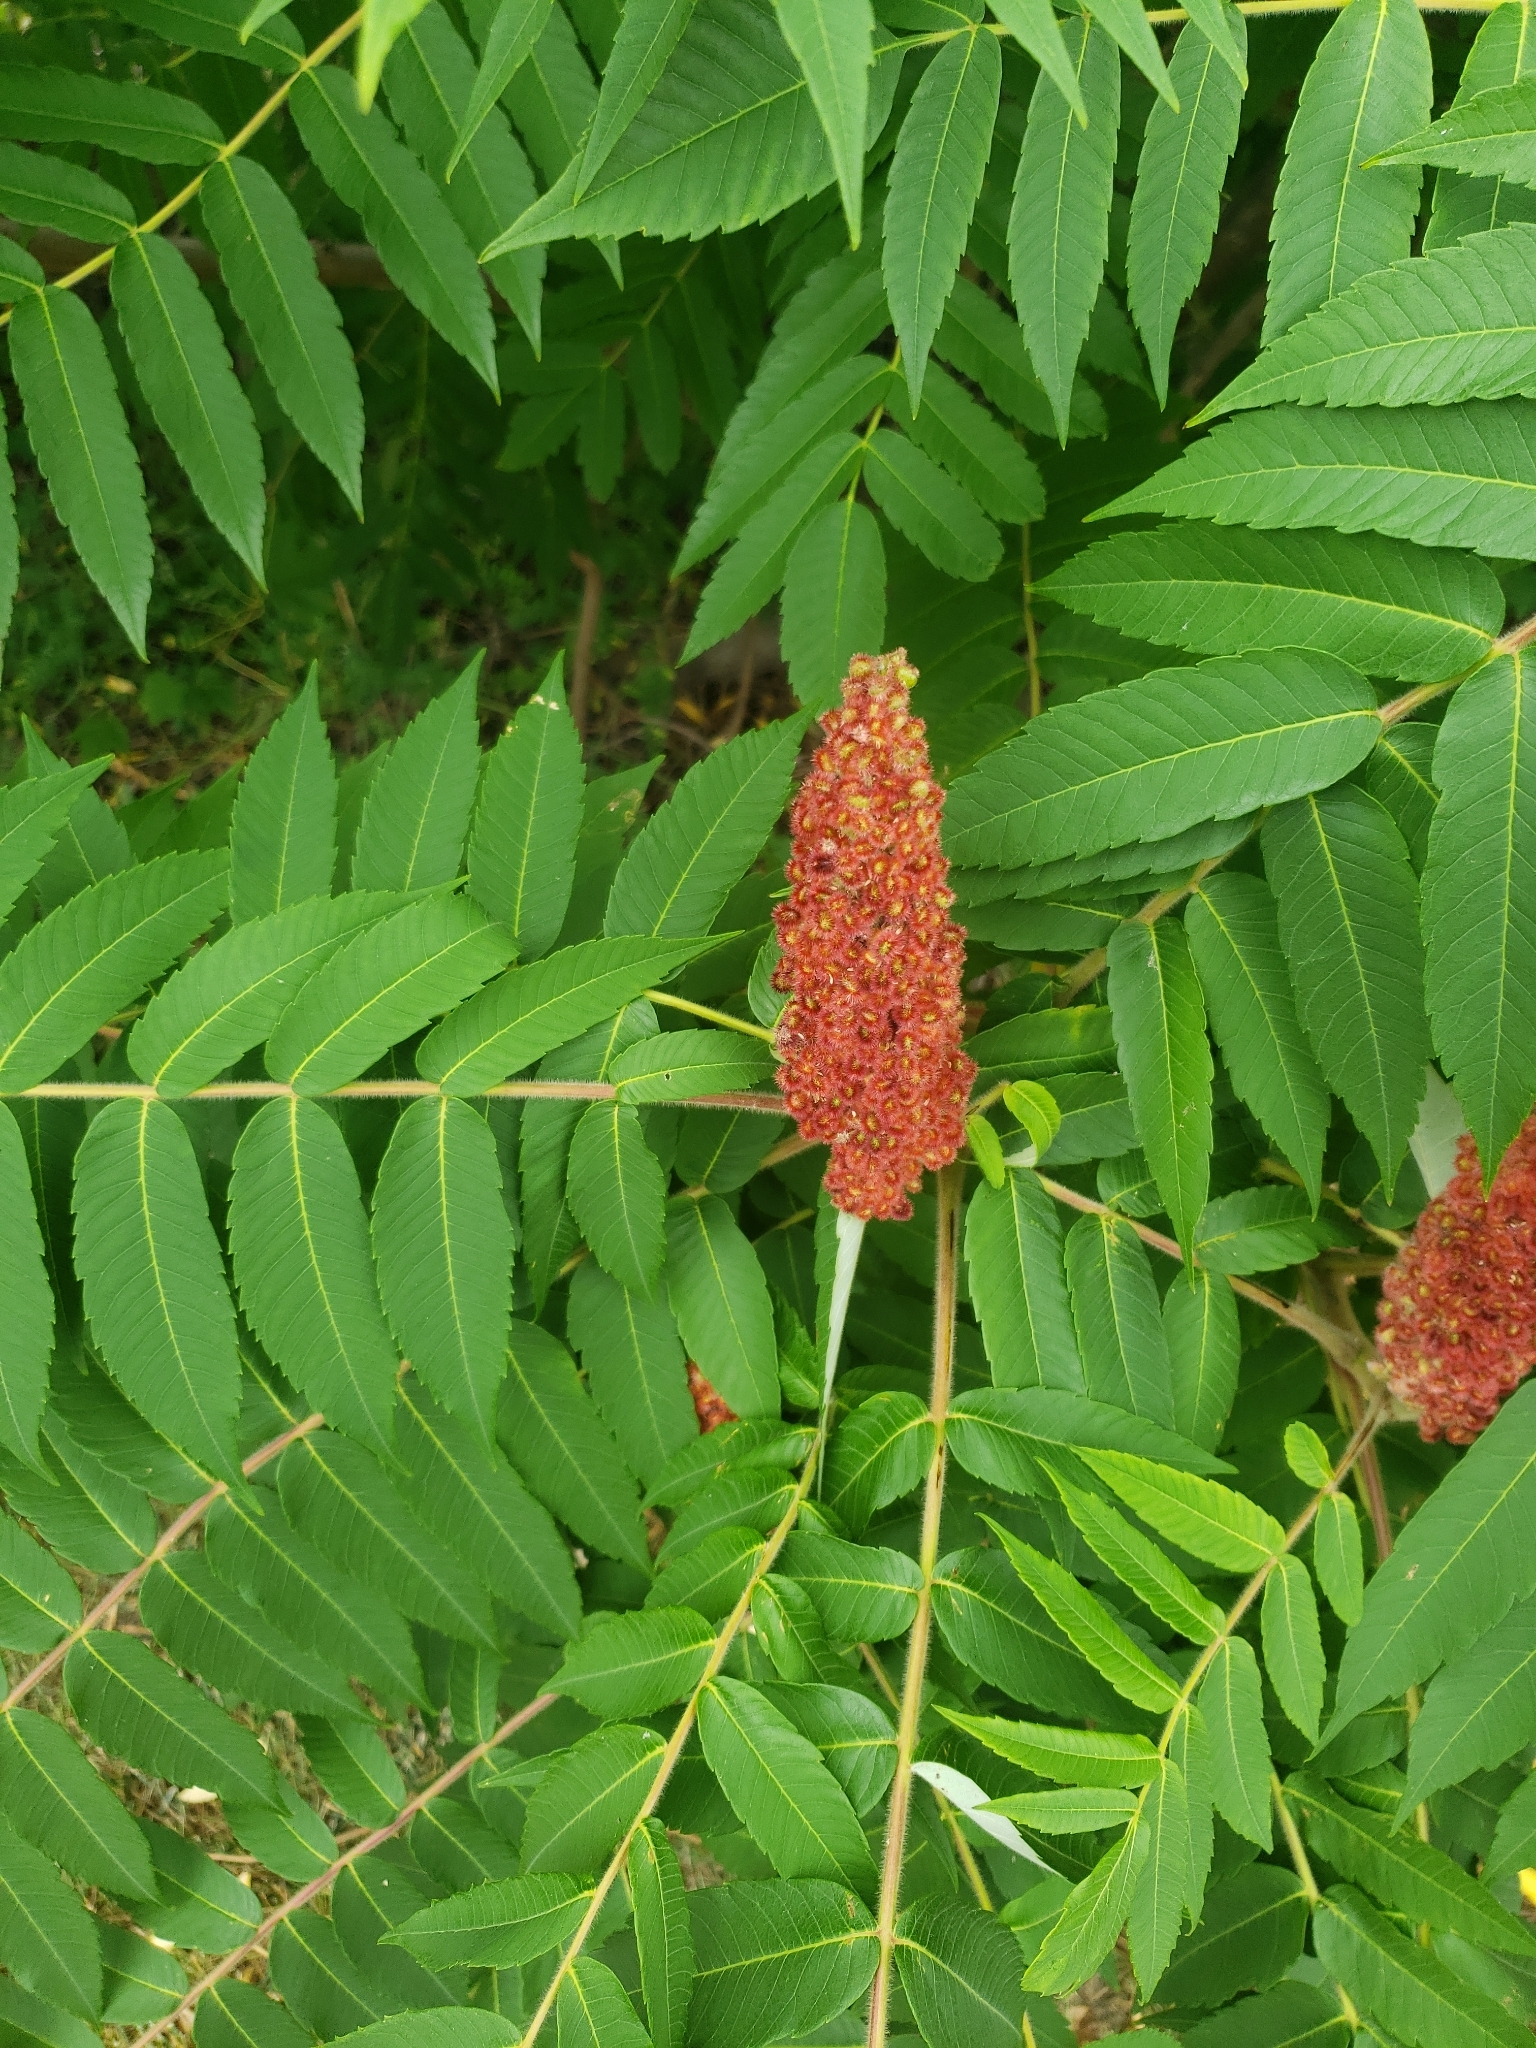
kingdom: Plantae
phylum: Tracheophyta
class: Magnoliopsida
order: Sapindales
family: Anacardiaceae
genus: Rhus
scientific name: Rhus typhina
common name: Staghorn sumac
